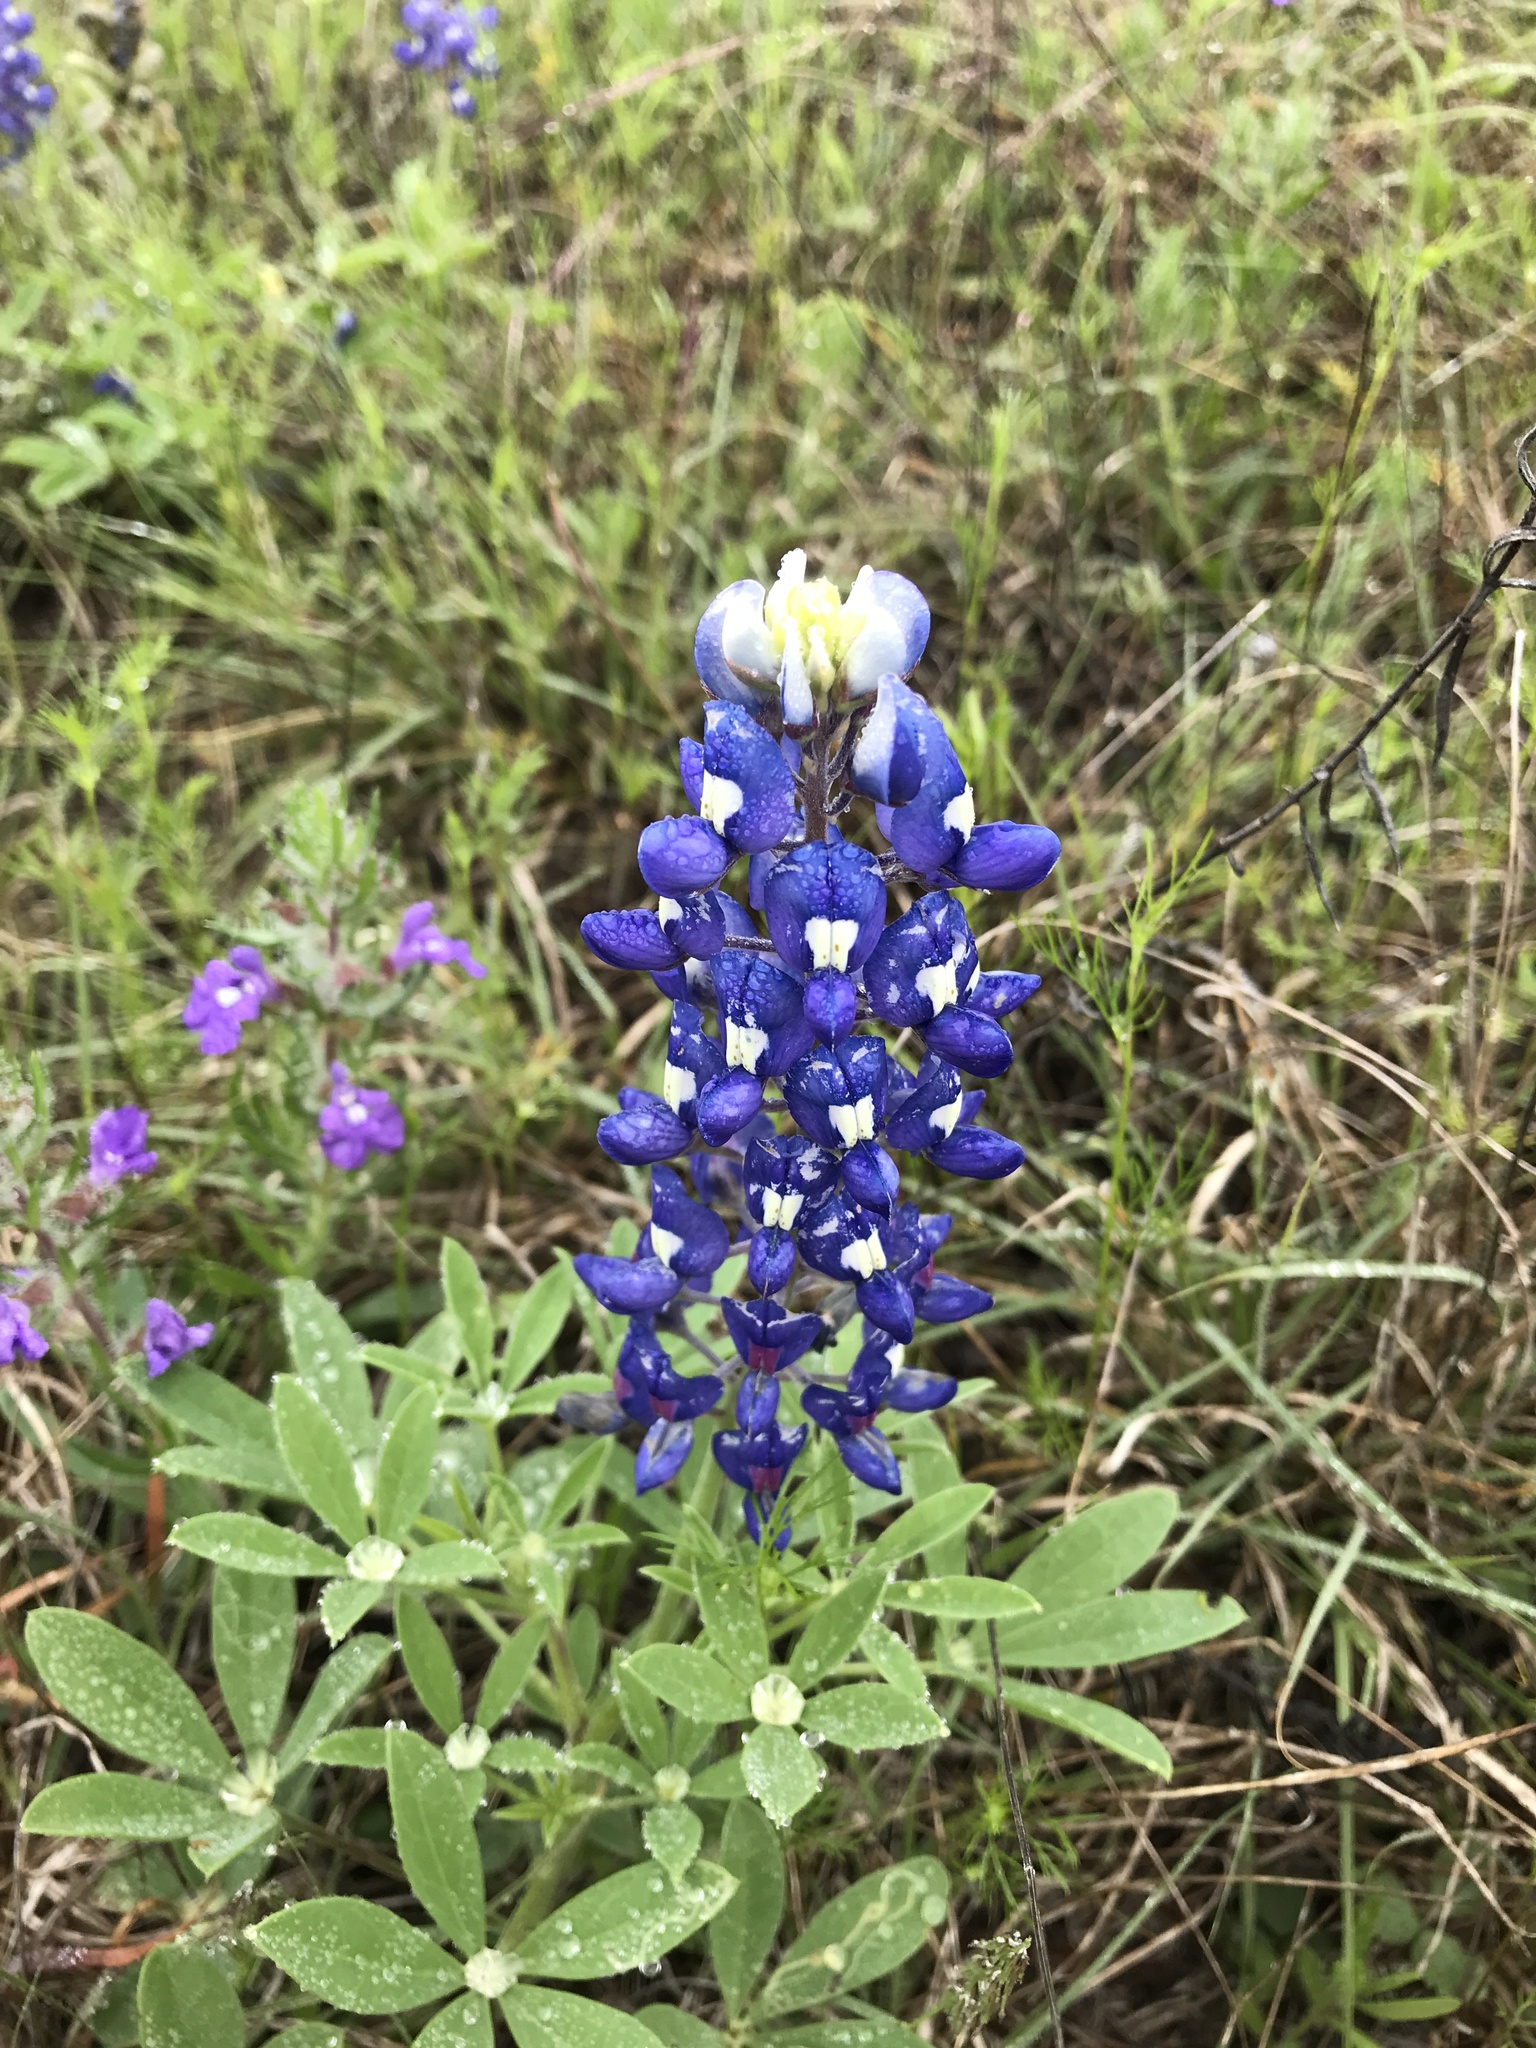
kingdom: Plantae
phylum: Tracheophyta
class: Magnoliopsida
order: Fabales
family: Fabaceae
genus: Lupinus
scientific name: Lupinus texensis
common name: Texas bluebonnet
